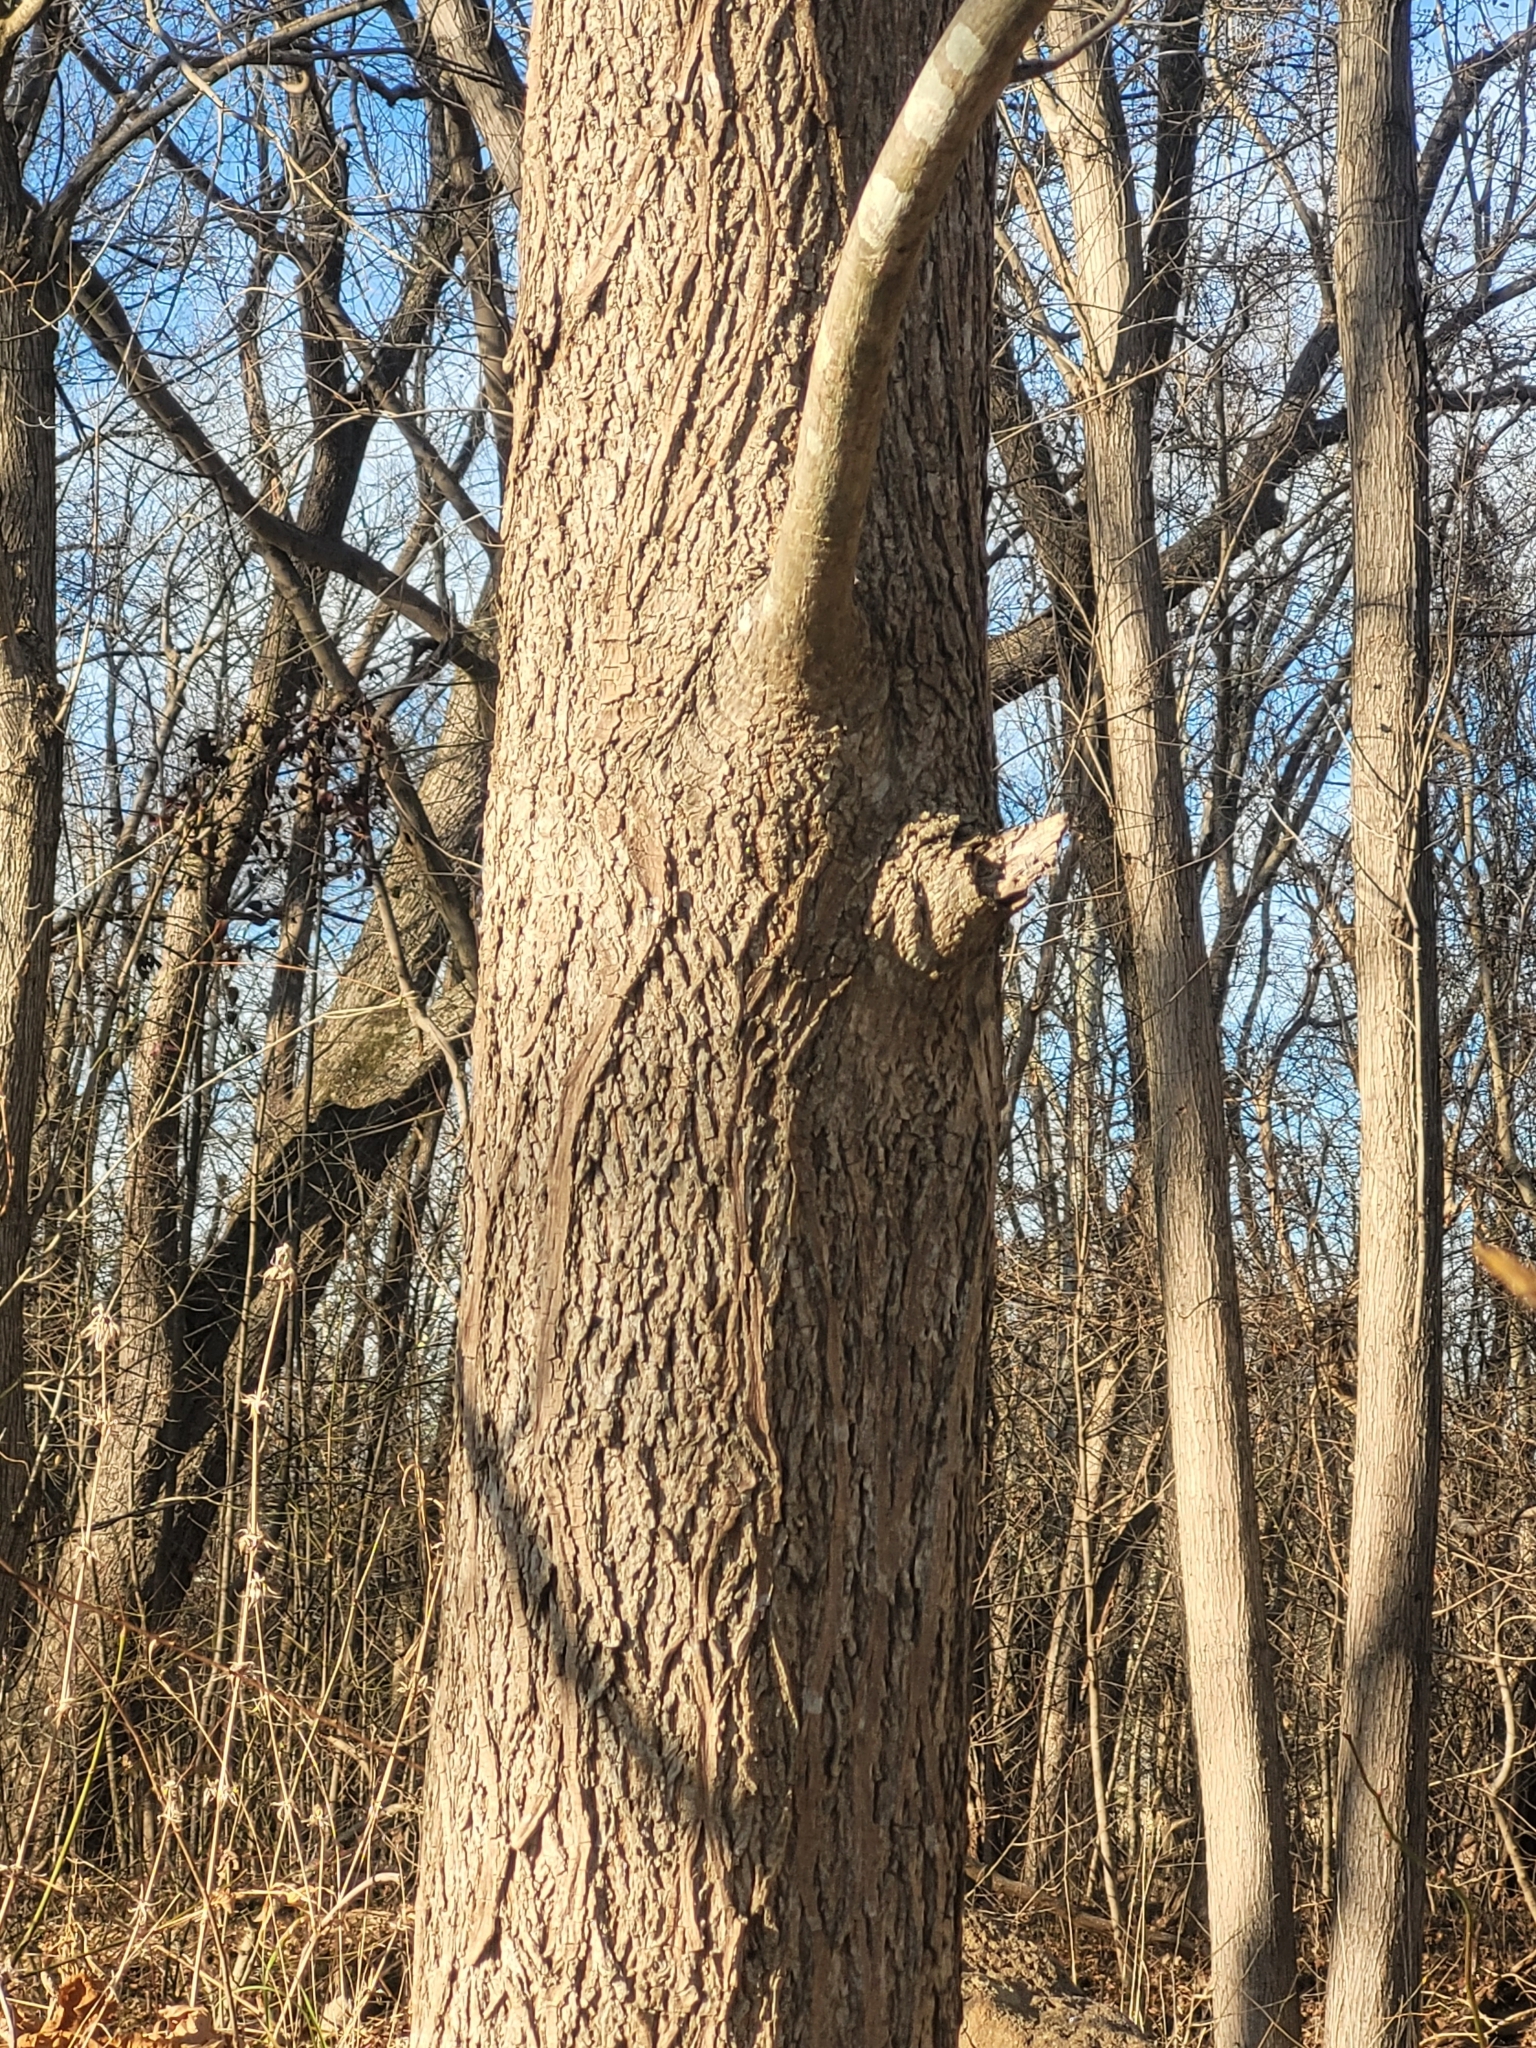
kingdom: Plantae
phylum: Tracheophyta
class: Magnoliopsida
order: Fagales
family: Juglandaceae
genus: Carya
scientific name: Carya cordiformis
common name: Bitternut hickory
